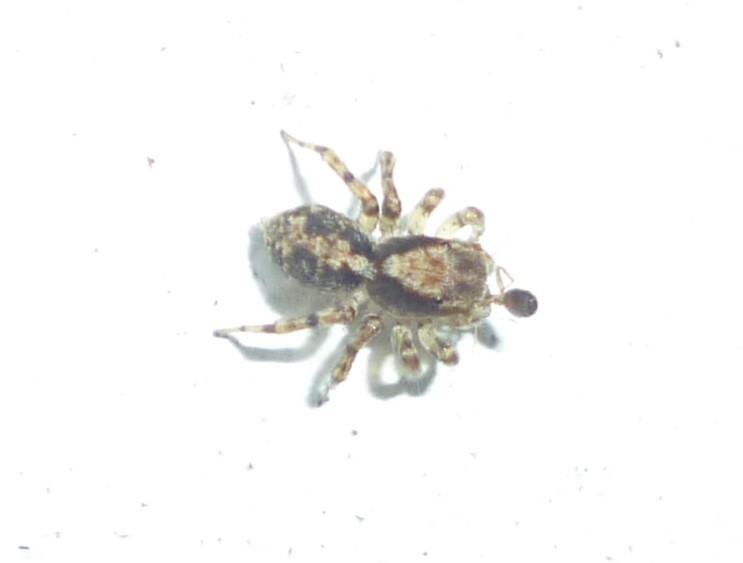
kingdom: Animalia
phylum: Arthropoda
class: Arachnida
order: Araneae
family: Salticidae
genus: Naphrys
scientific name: Naphrys pulex
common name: Flea jumping spider
